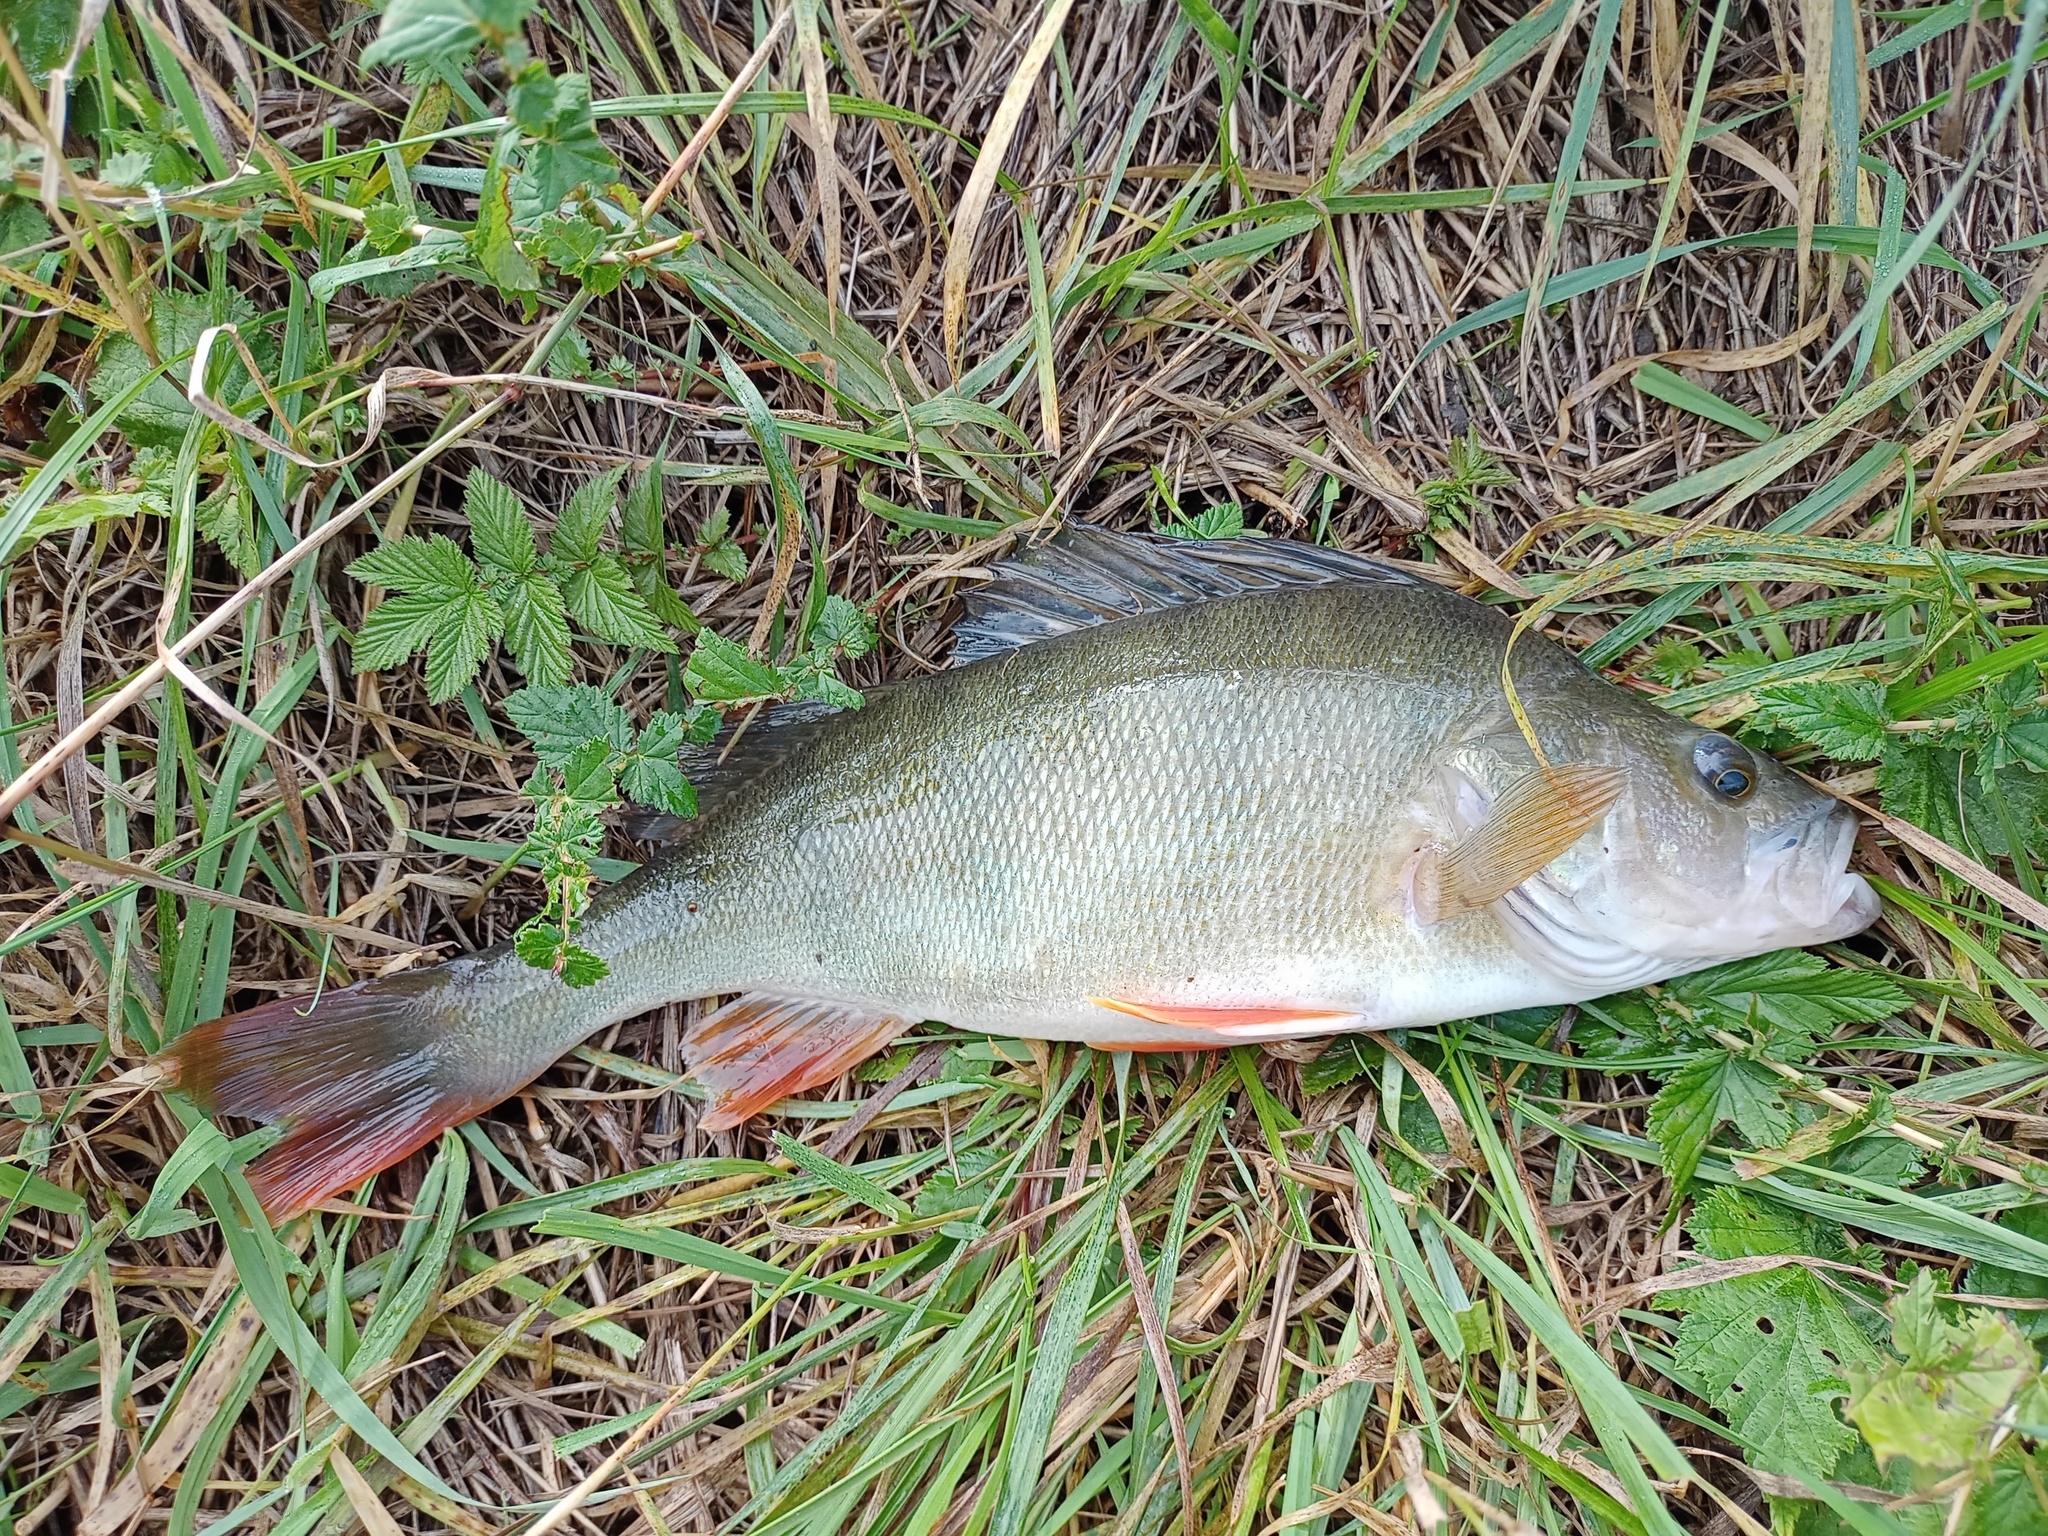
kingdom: Animalia
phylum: Chordata
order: Perciformes
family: Percidae
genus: Perca
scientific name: Perca fluviatilis
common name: Perch
